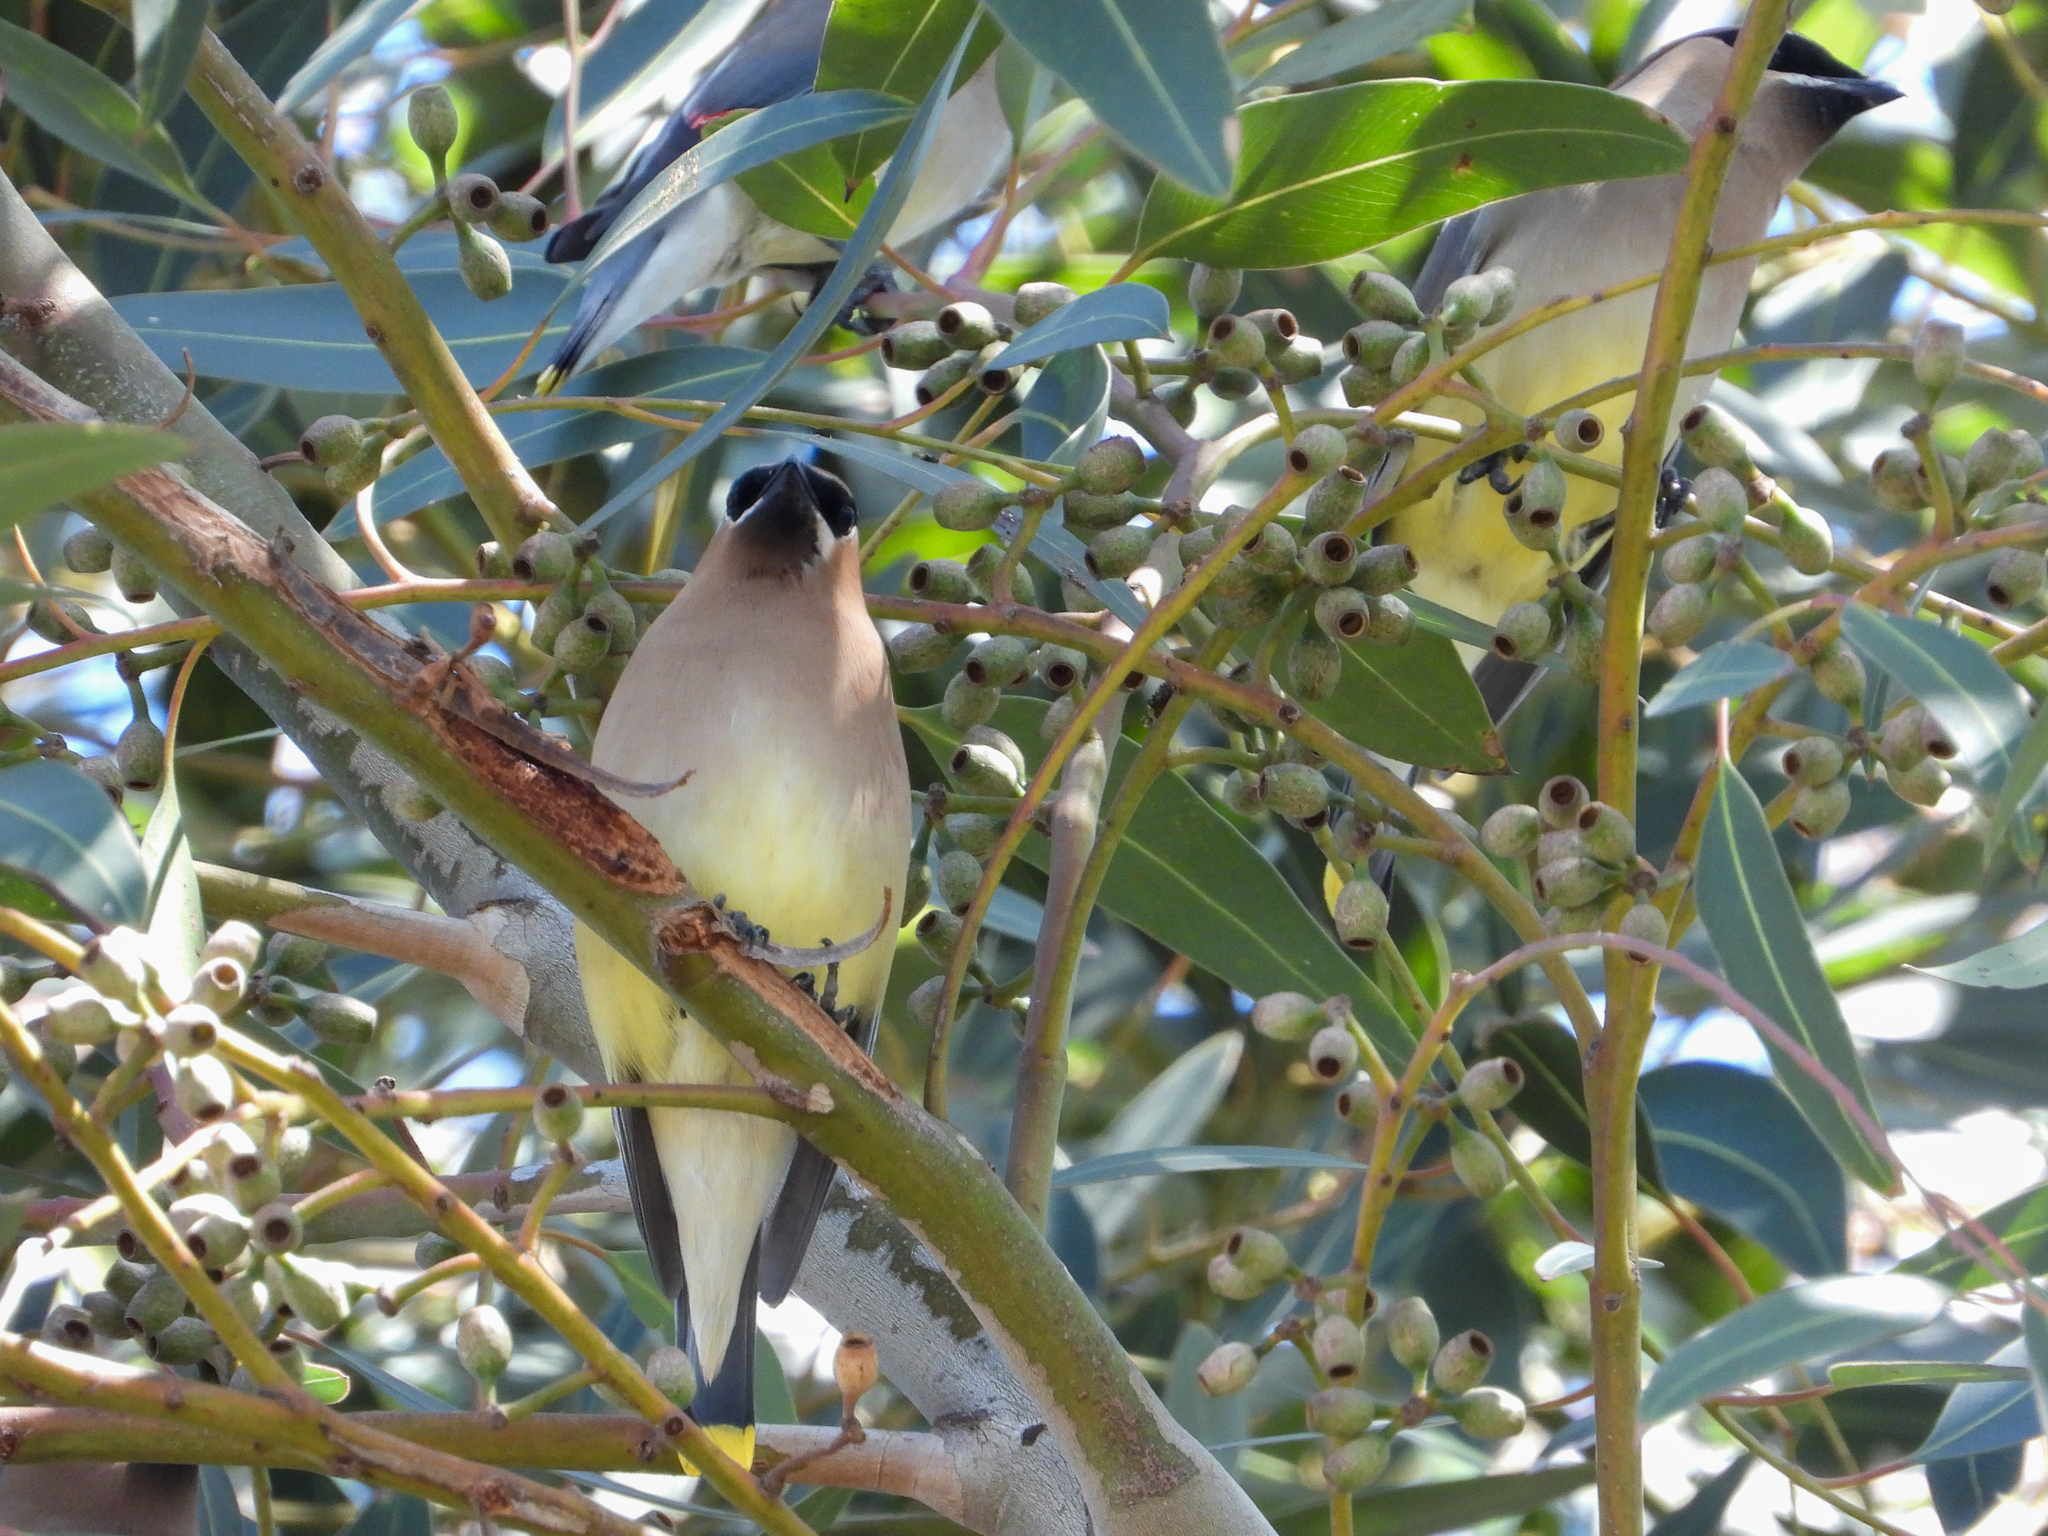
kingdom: Animalia
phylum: Chordata
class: Aves
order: Passeriformes
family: Bombycillidae
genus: Bombycilla
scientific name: Bombycilla cedrorum
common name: Cedar waxwing
